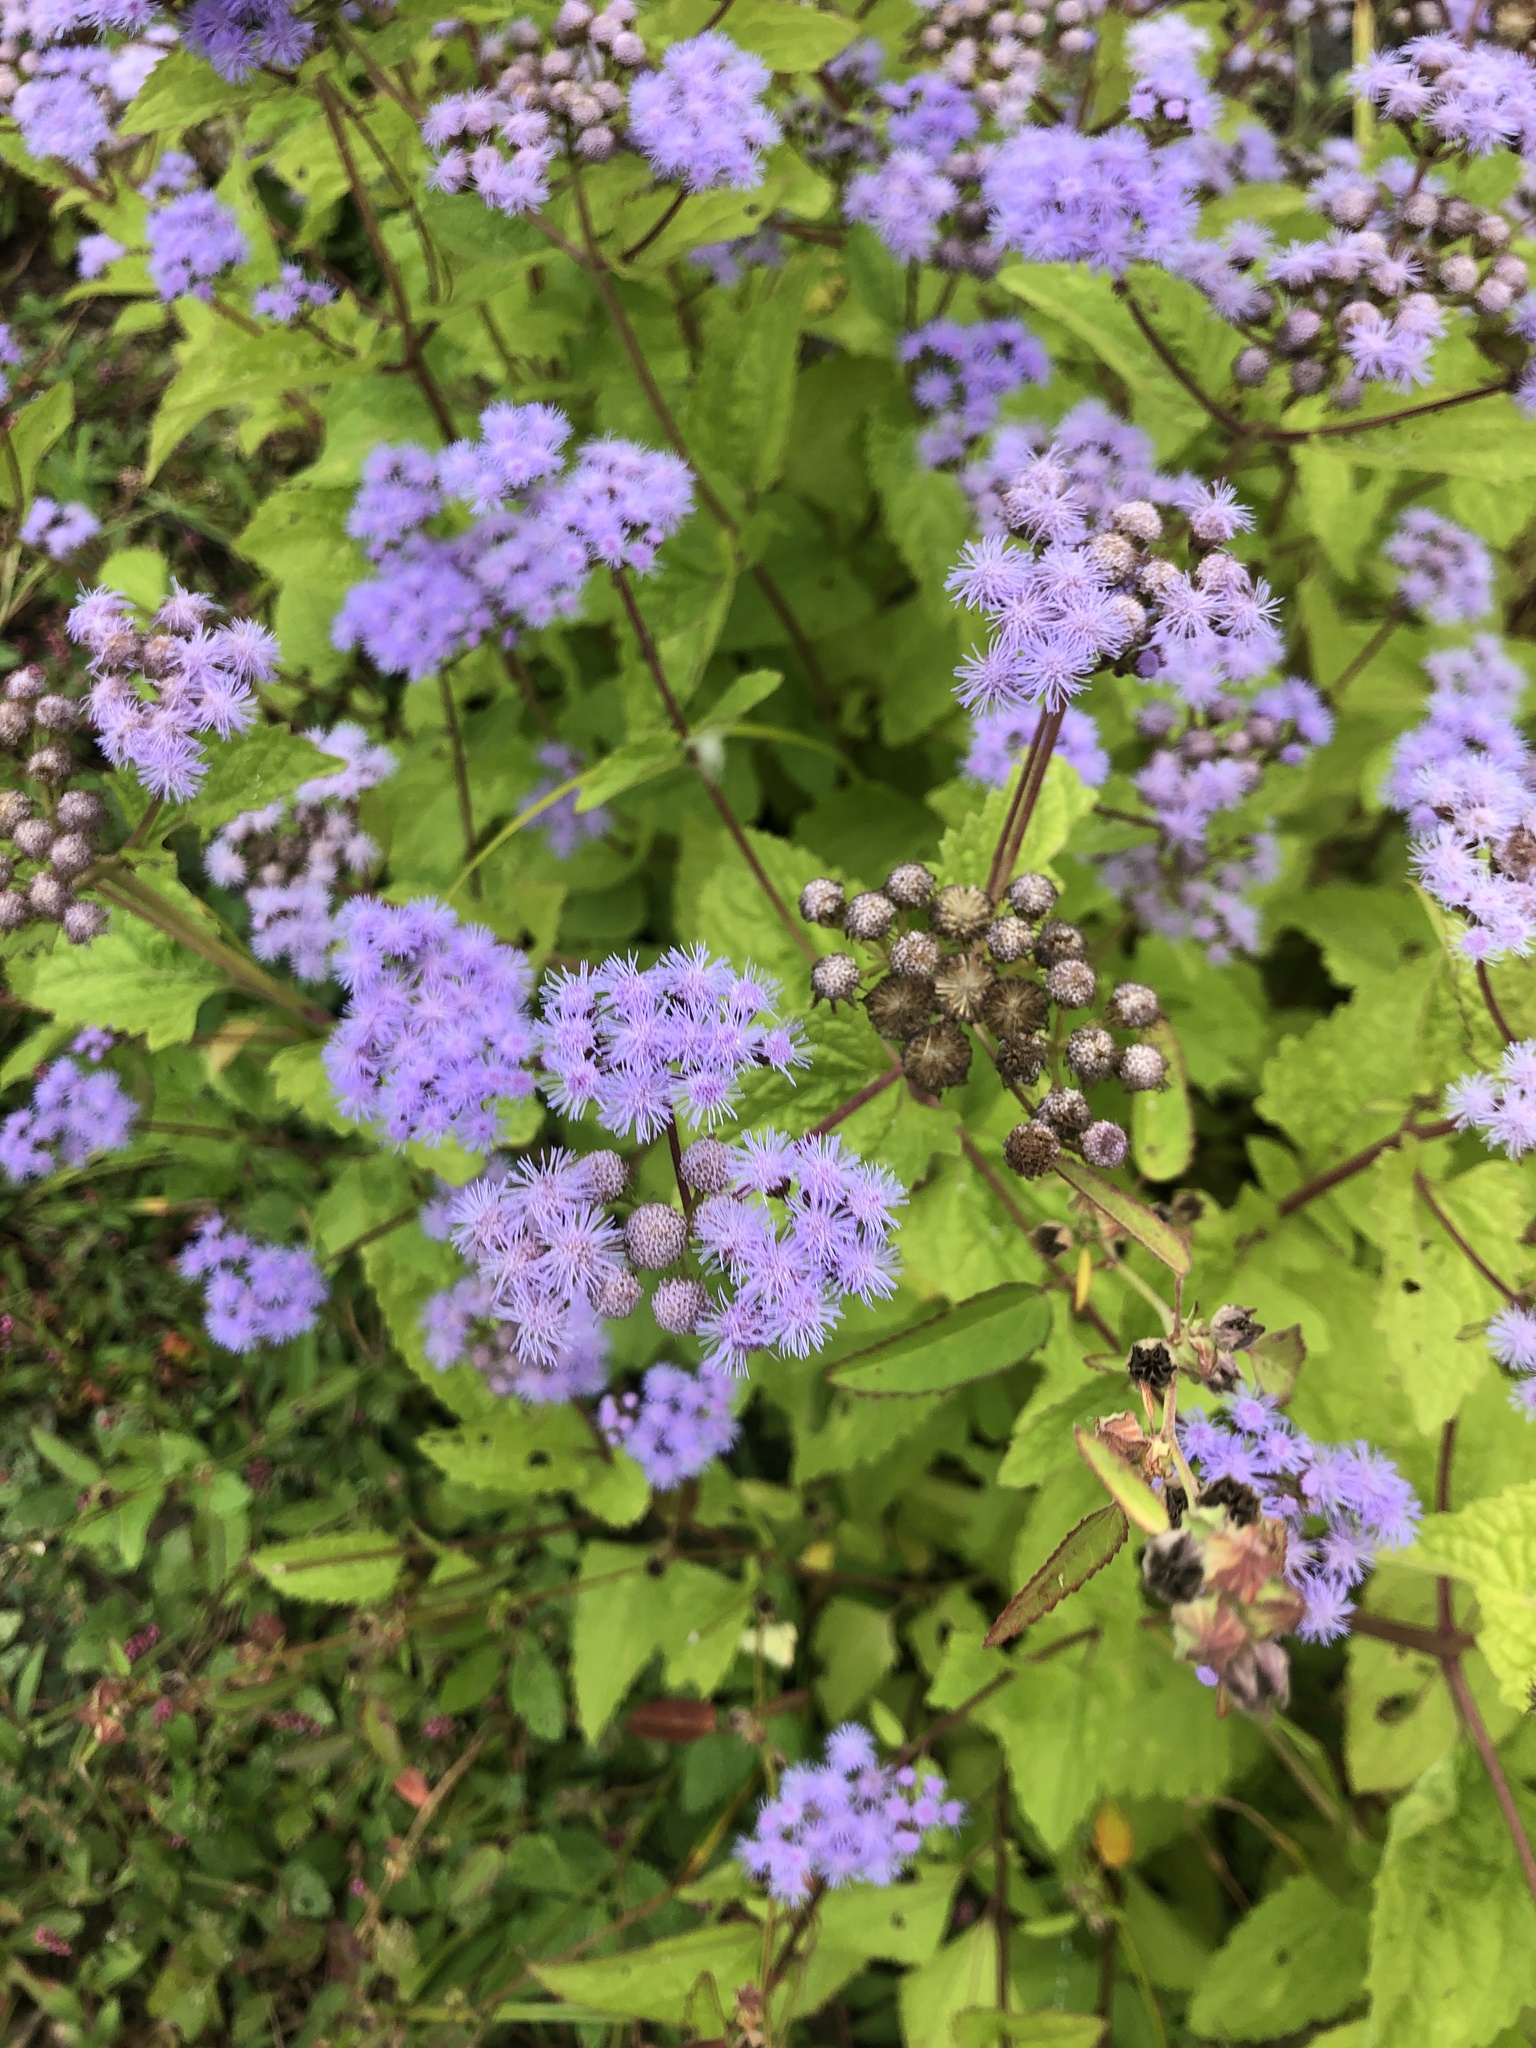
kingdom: Plantae
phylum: Tracheophyta
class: Magnoliopsida
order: Asterales
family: Asteraceae
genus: Conoclinium
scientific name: Conoclinium coelestinum
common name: Blue mistflower
